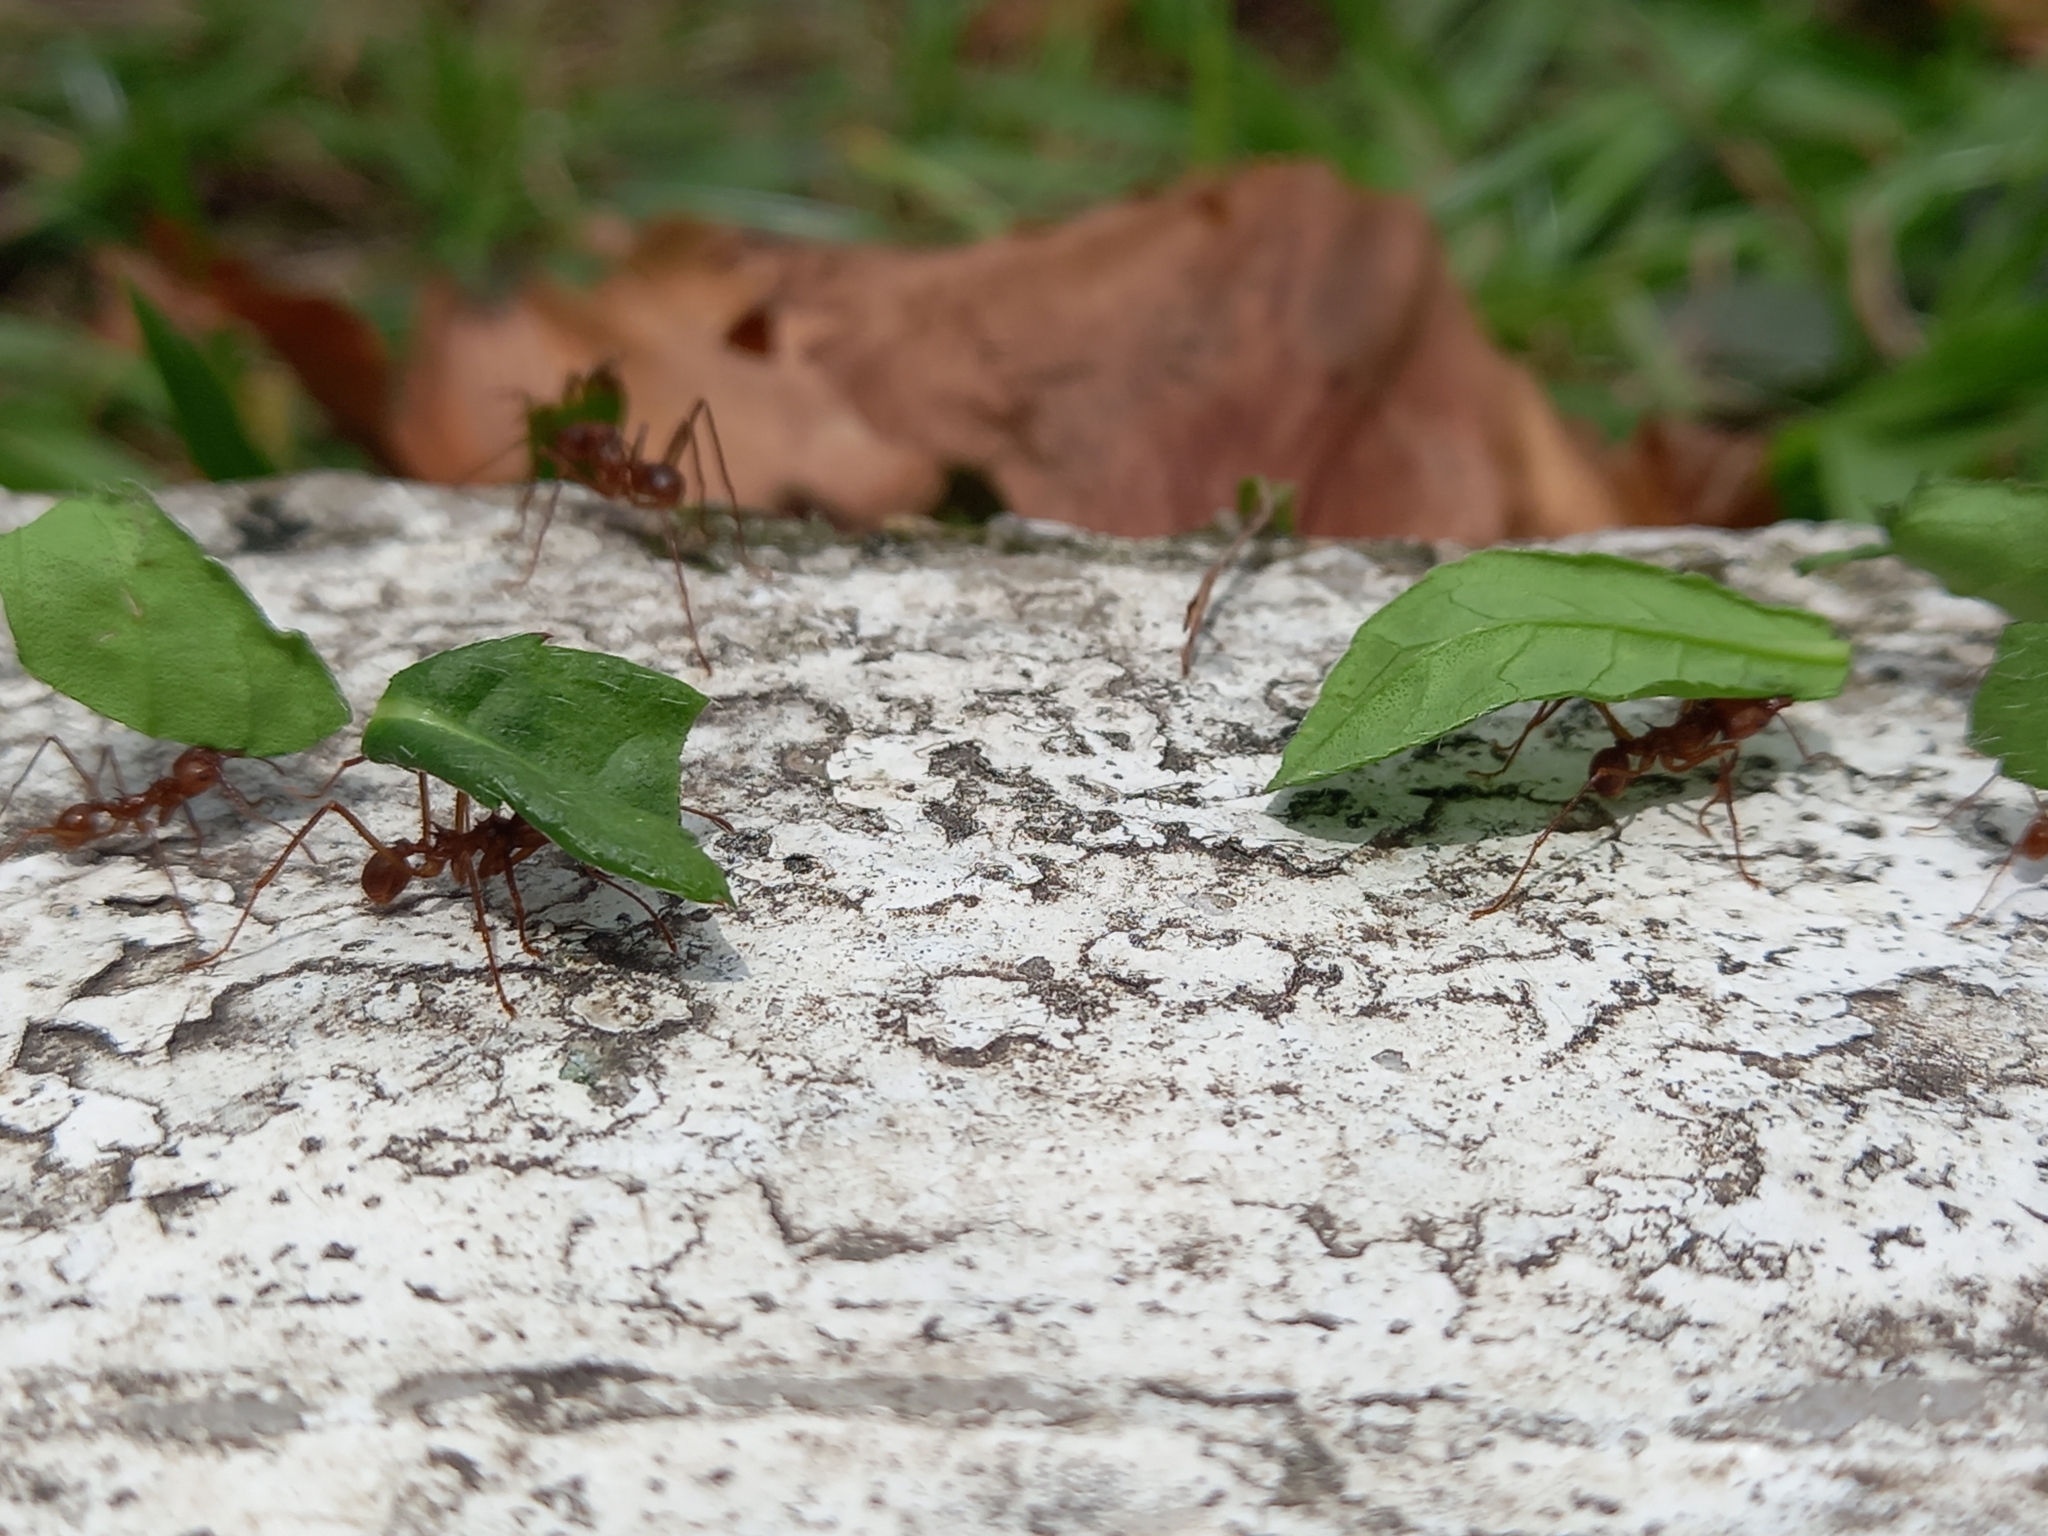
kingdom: Animalia
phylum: Arthropoda
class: Insecta
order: Hymenoptera
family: Formicidae
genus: Atta
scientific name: Atta cephalotes
